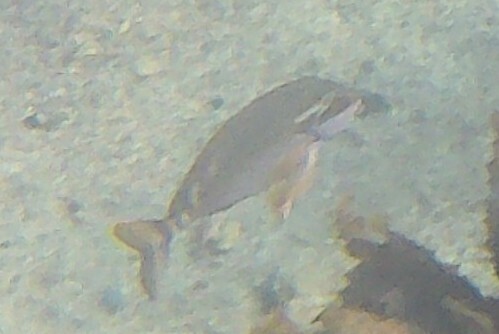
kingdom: Animalia
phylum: Chordata
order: Perciformes
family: Latridae
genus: Morwong
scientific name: Morwong fuscus
